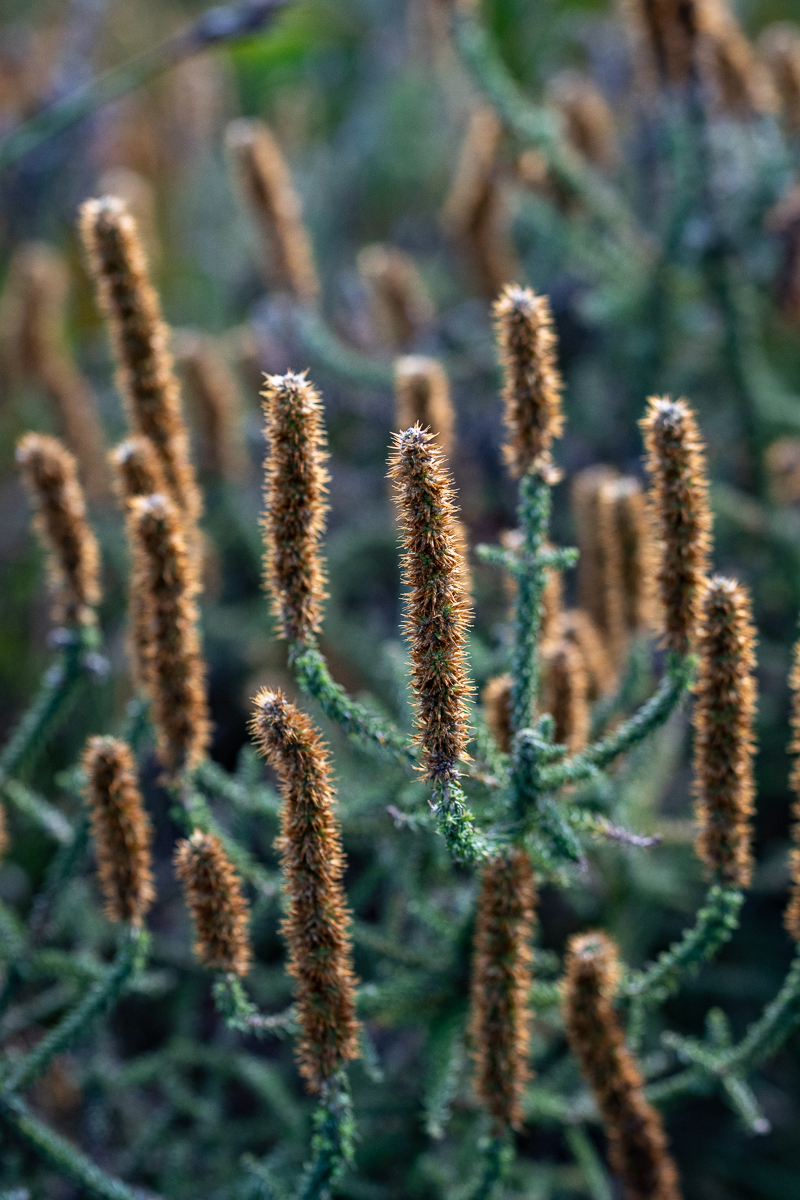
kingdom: Plantae
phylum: Tracheophyta
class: Magnoliopsida
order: Asterales
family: Asteraceae
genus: Seriphium
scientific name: Seriphium cinereum
